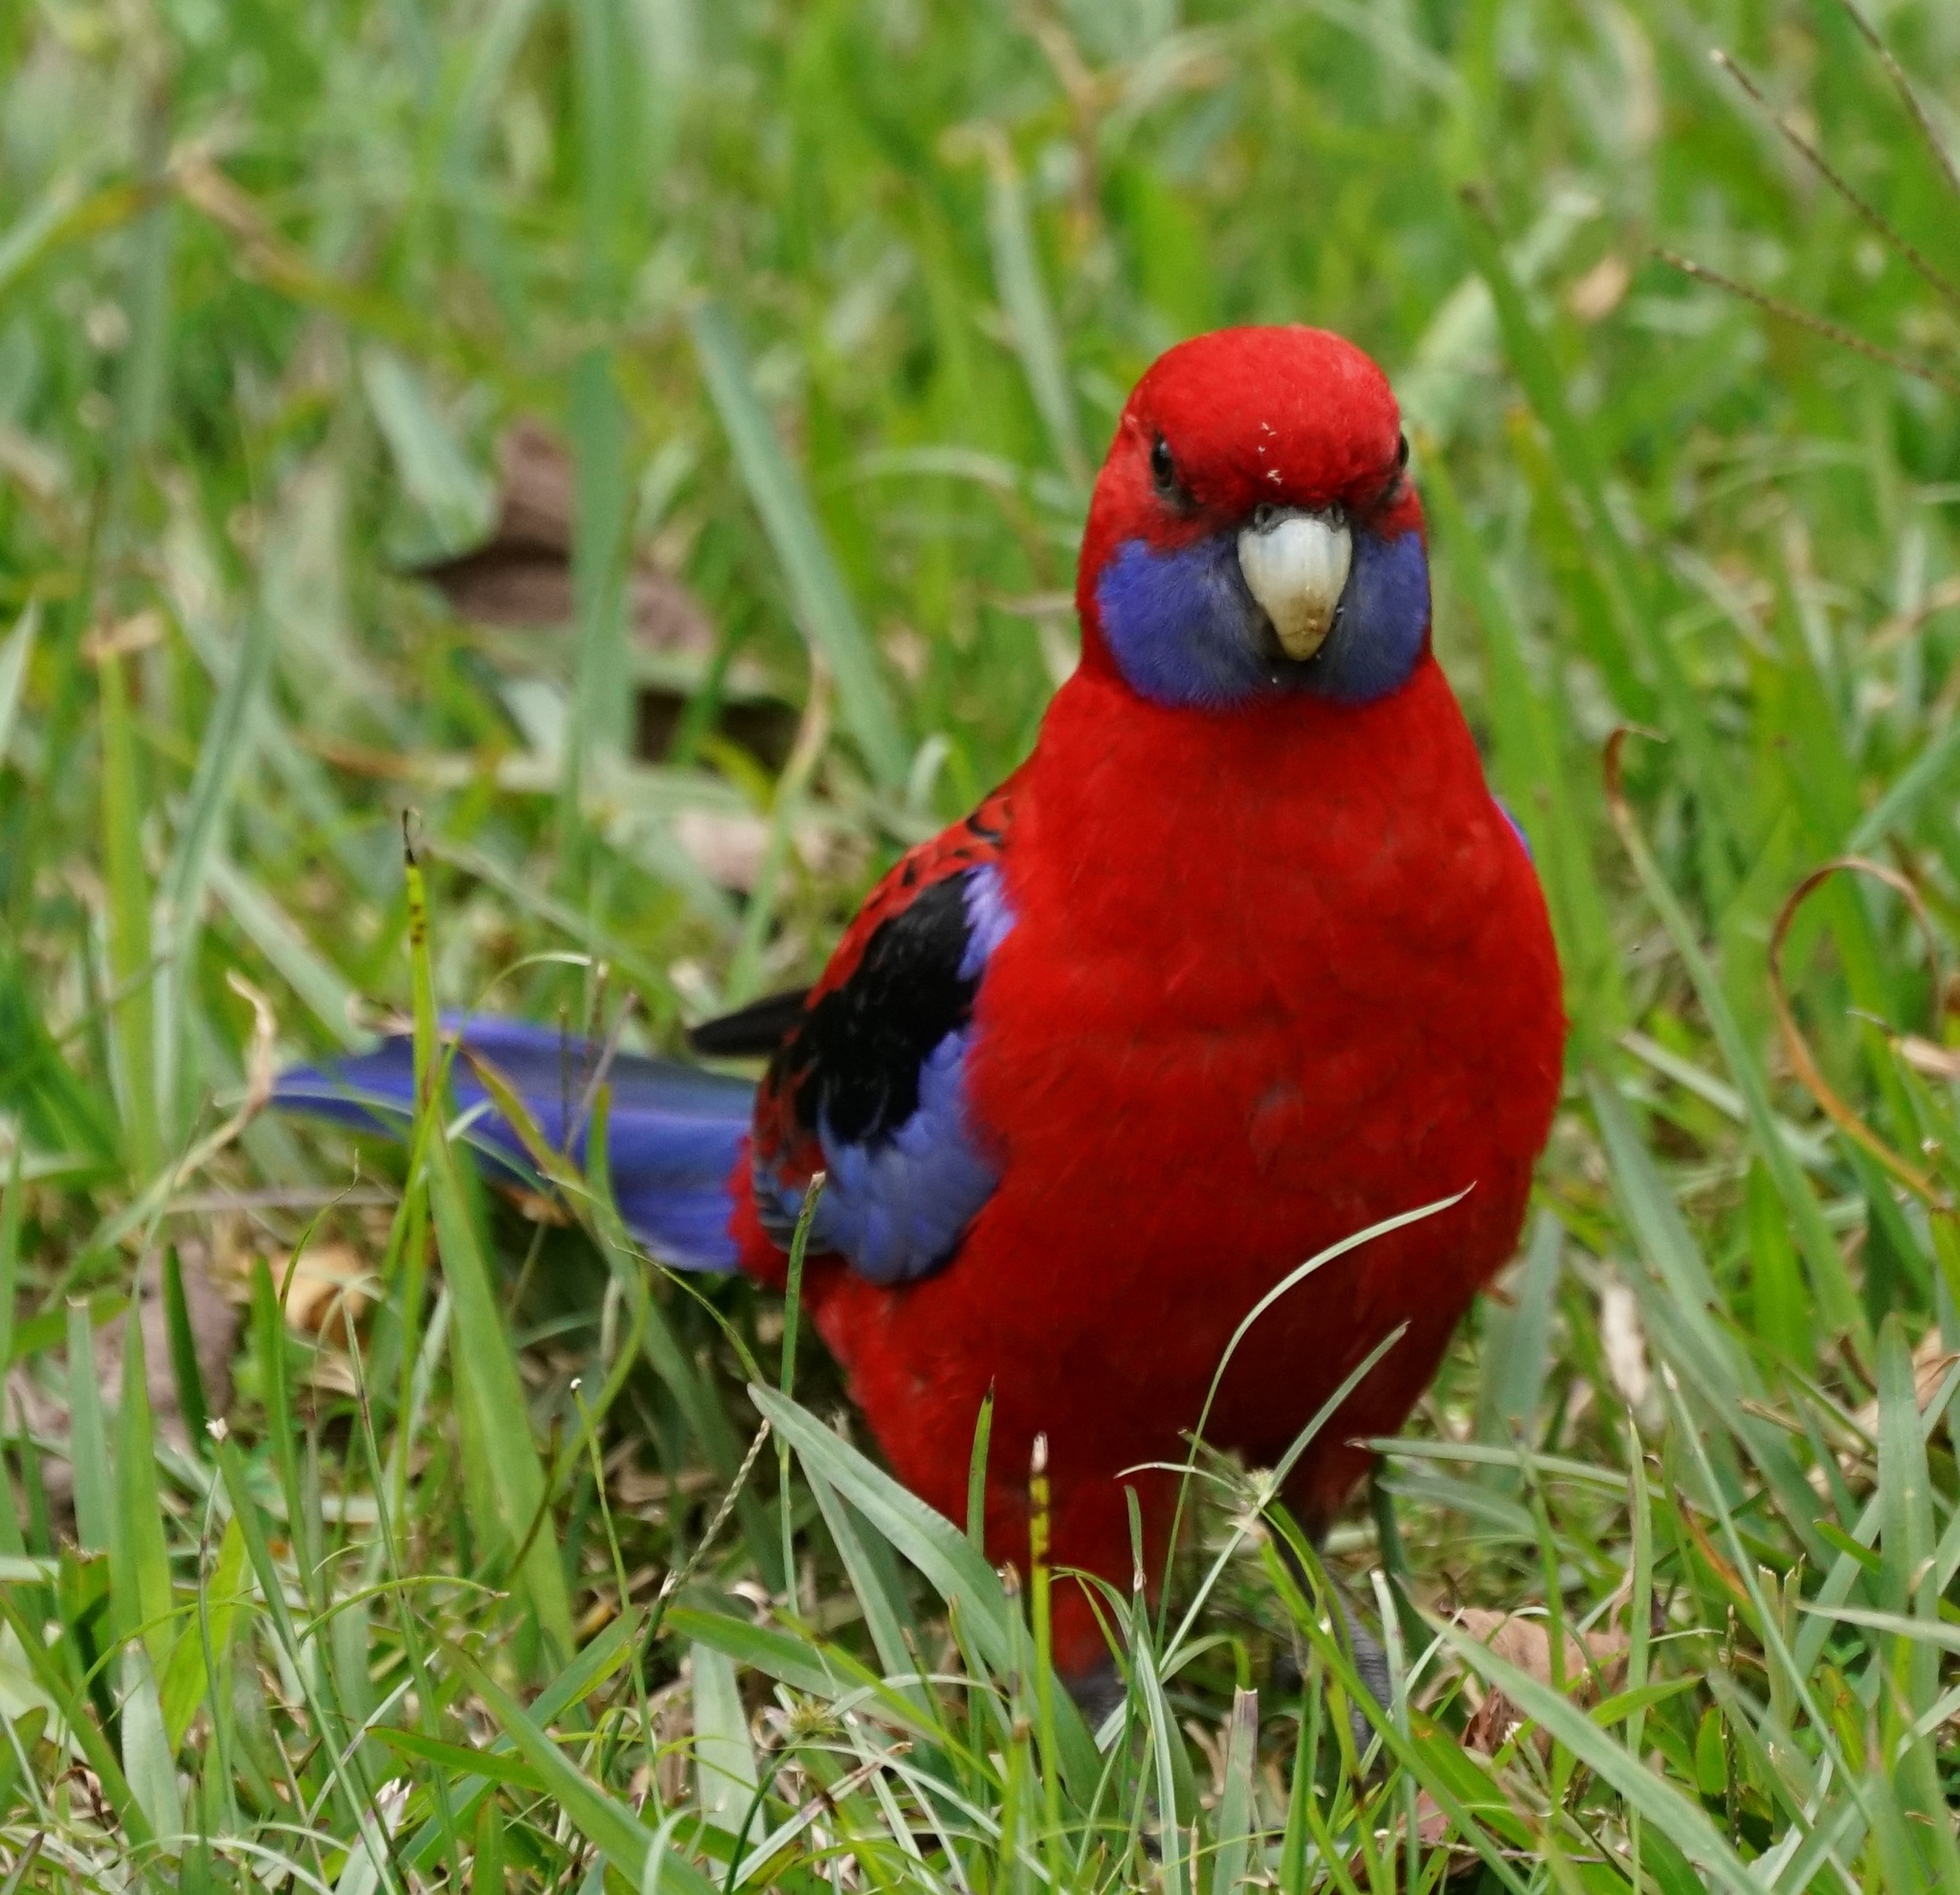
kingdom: Animalia
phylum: Chordata
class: Aves
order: Psittaciformes
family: Psittacidae
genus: Platycercus
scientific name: Platycercus elegans
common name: Crimson rosella
